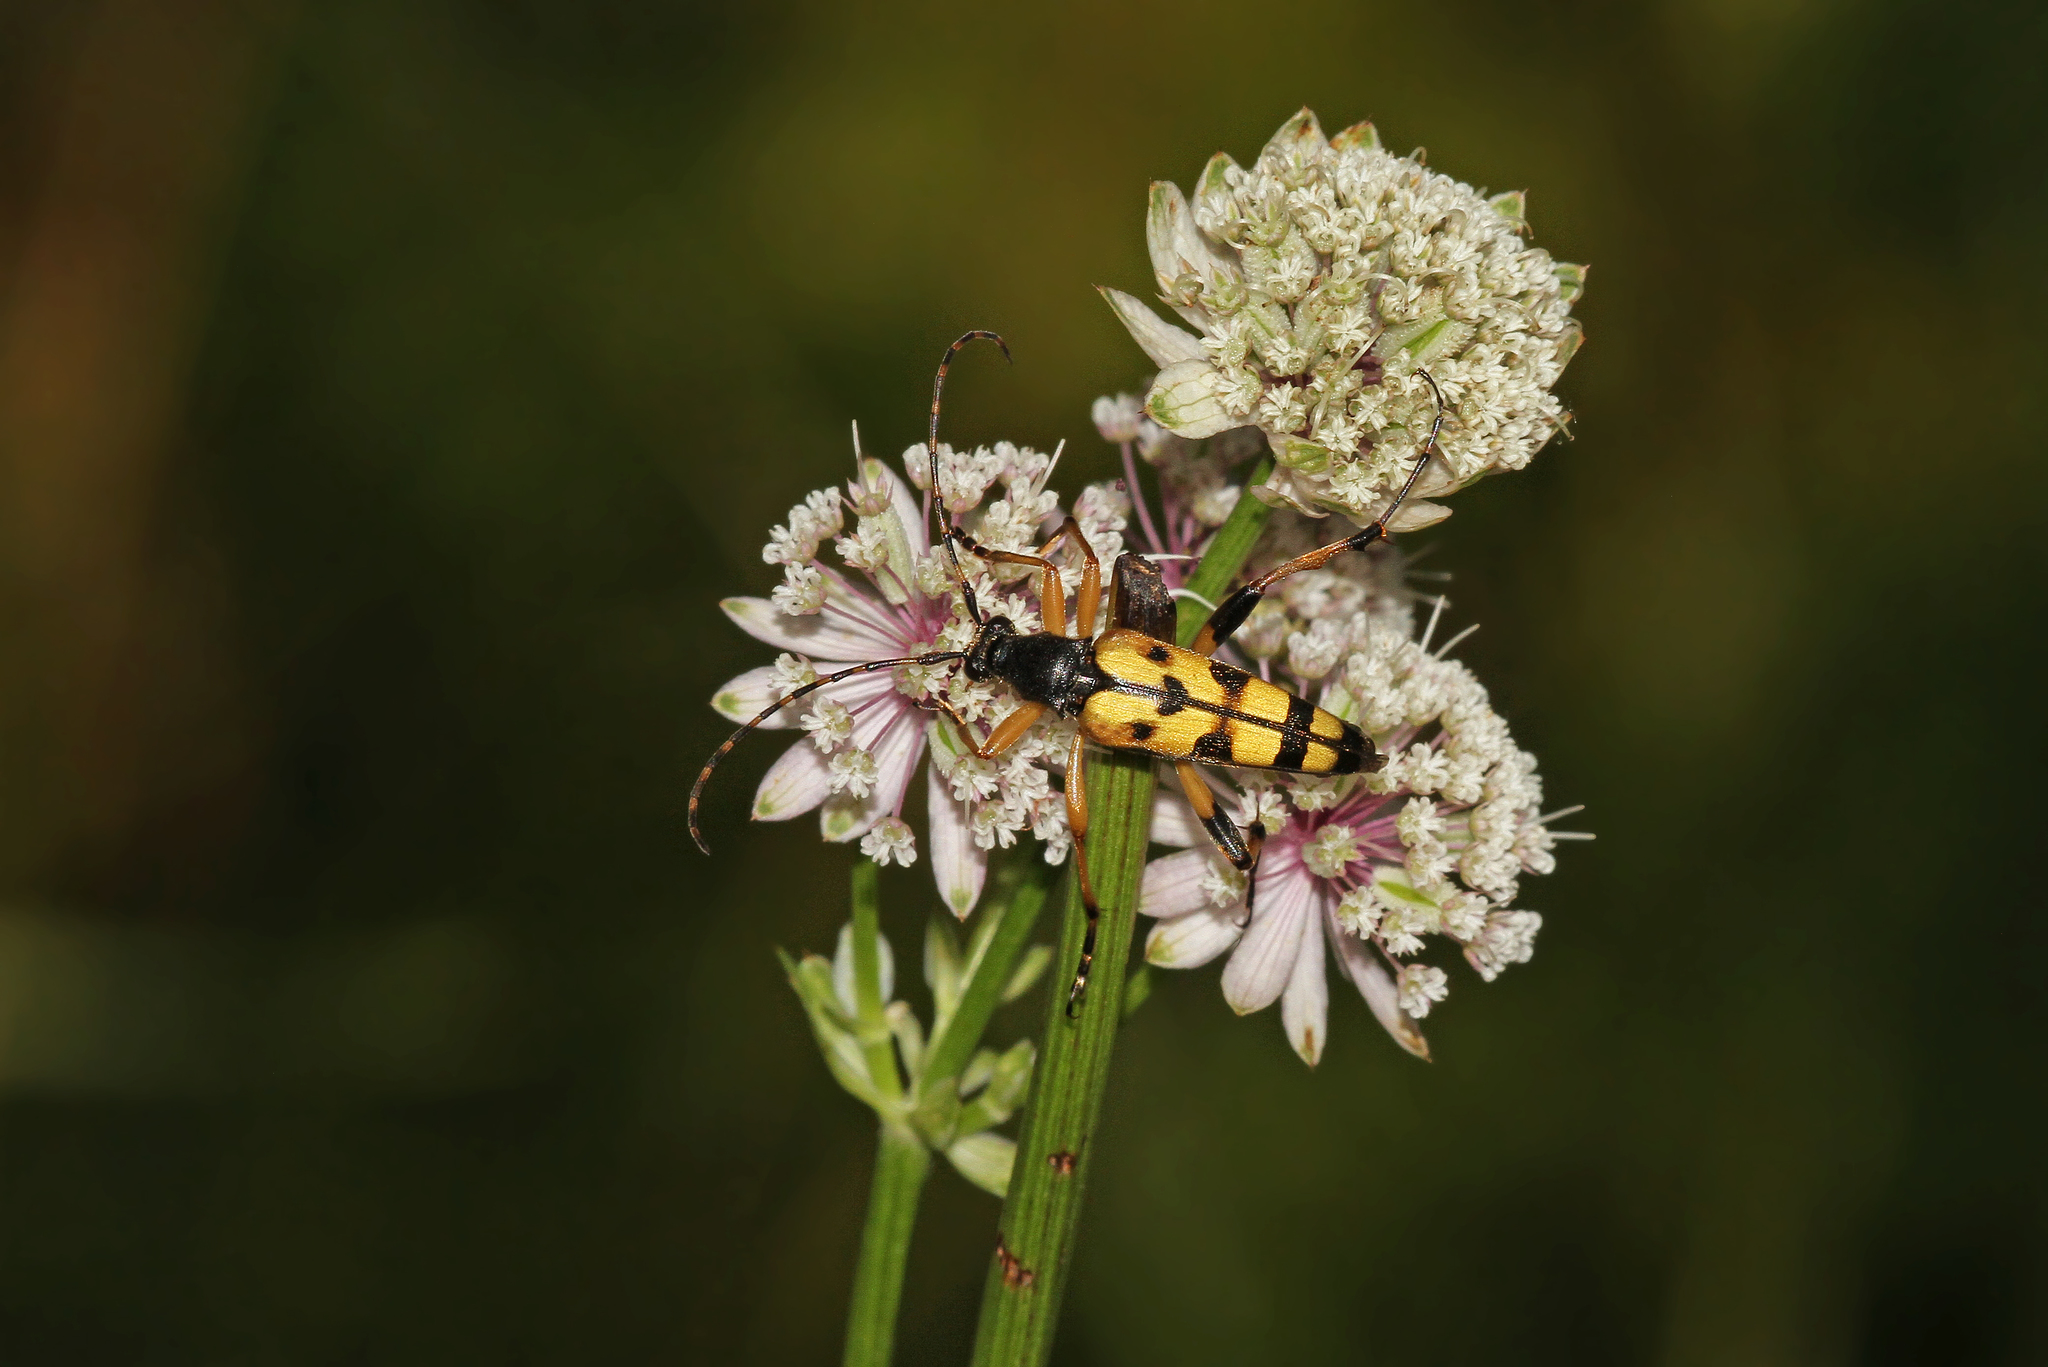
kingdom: Animalia
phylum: Arthropoda
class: Insecta
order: Coleoptera
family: Cerambycidae
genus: Rutpela
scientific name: Rutpela maculata
